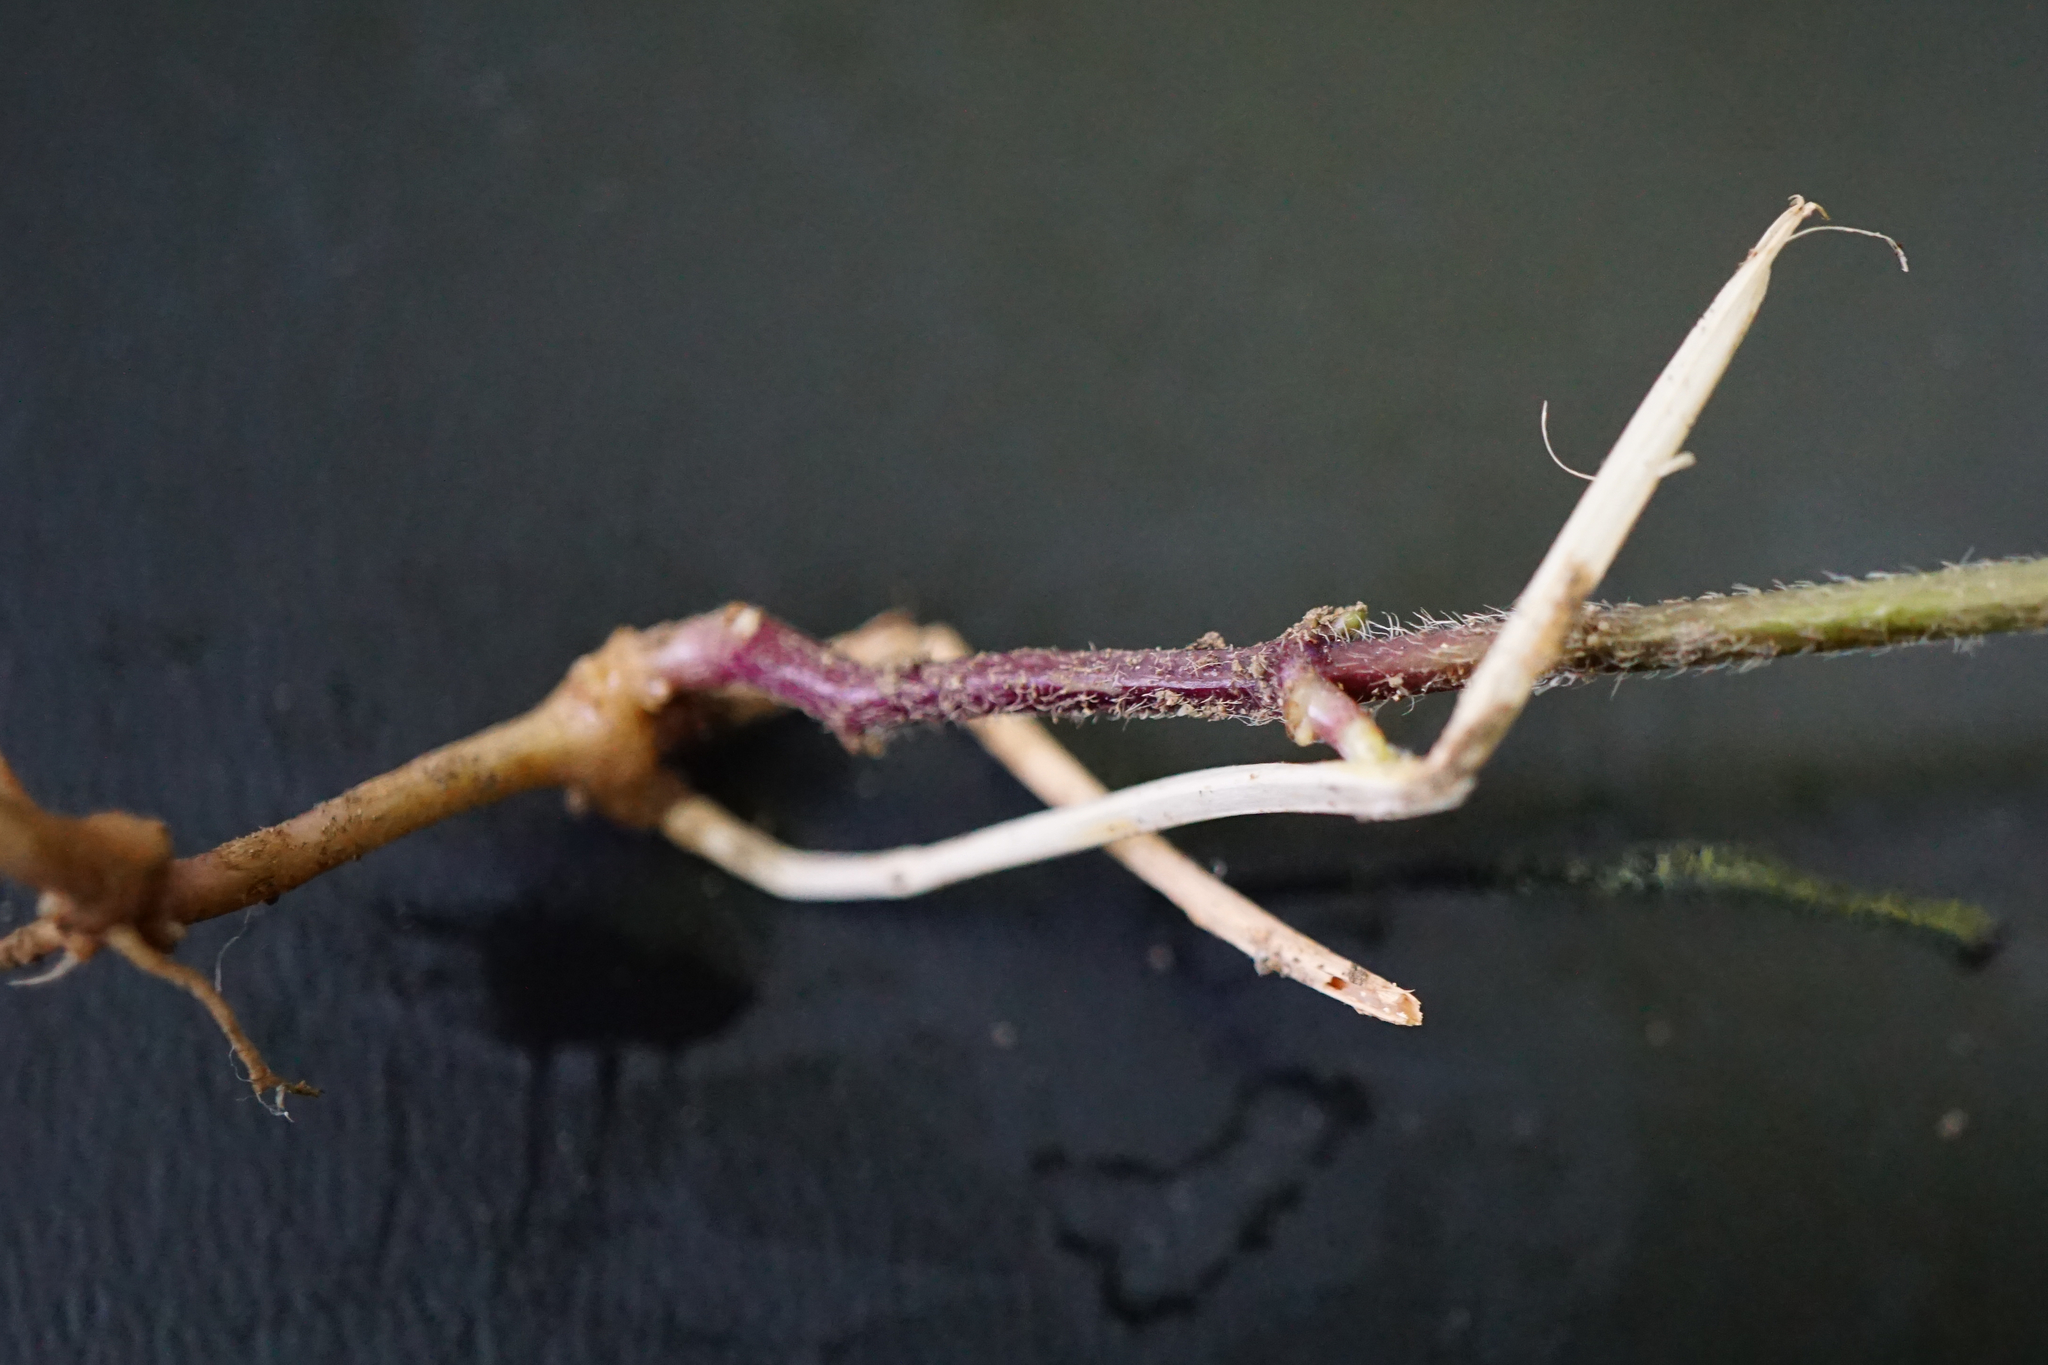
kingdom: Plantae
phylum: Tracheophyta
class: Magnoliopsida
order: Lamiales
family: Lamiaceae
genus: Lamium
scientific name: Lamium galeobdolon
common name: Yellow archangel
